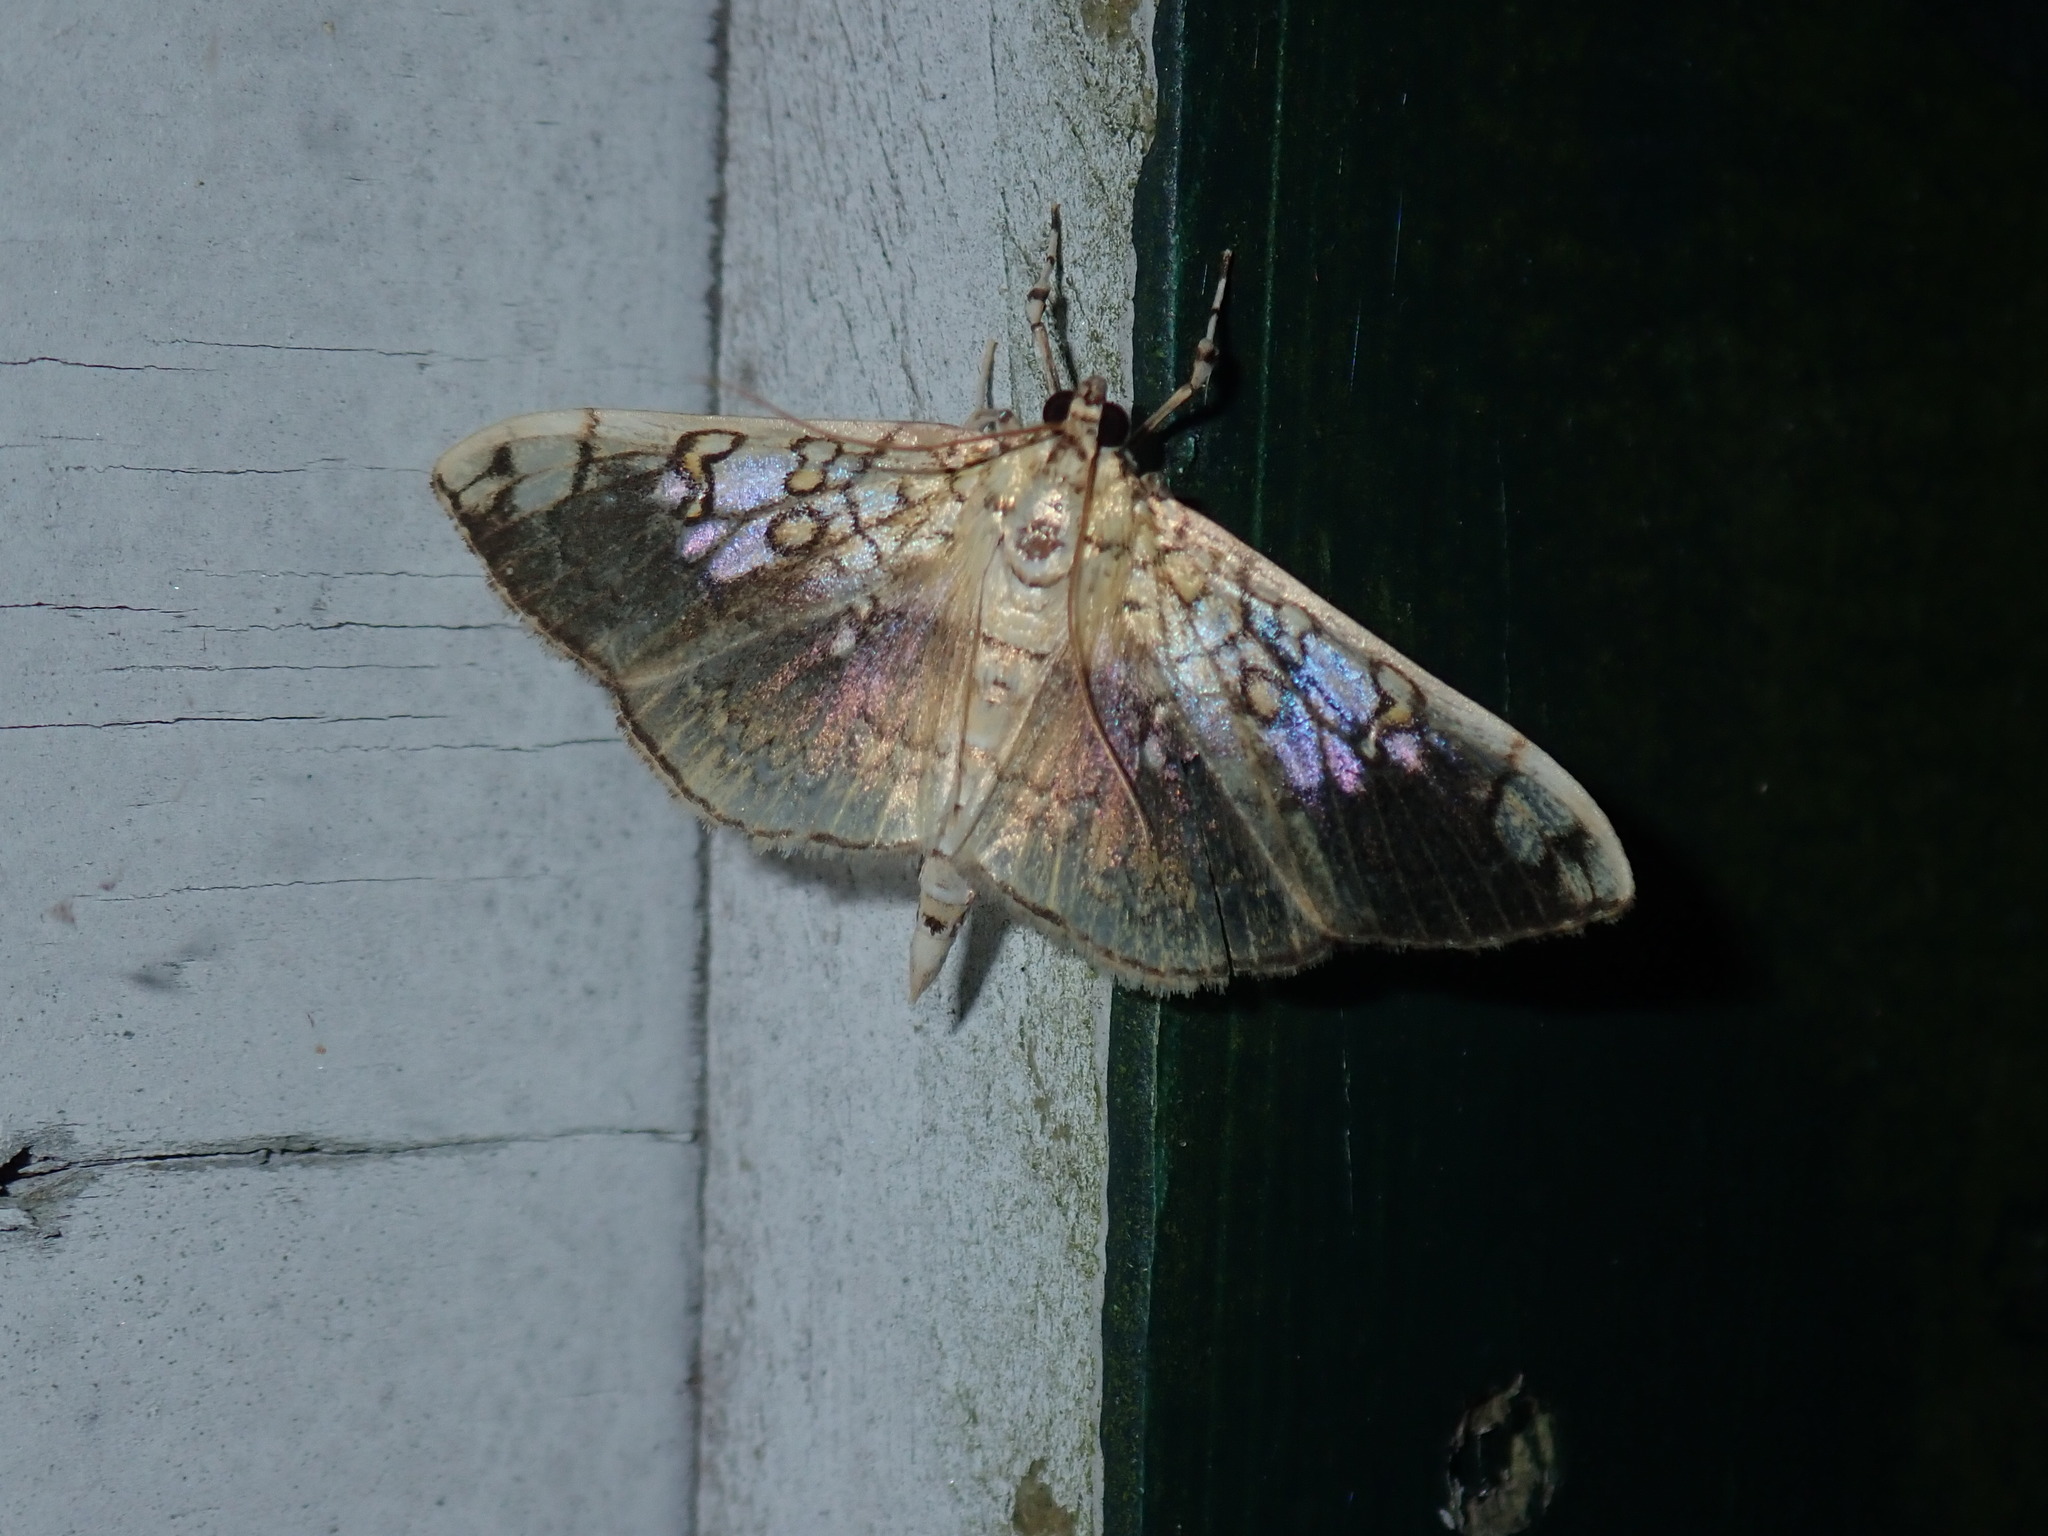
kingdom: Animalia
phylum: Arthropoda
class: Insecta
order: Lepidoptera
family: Crambidae
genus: Pantographa
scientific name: Pantographa limata
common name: Basswood leafroller moth
